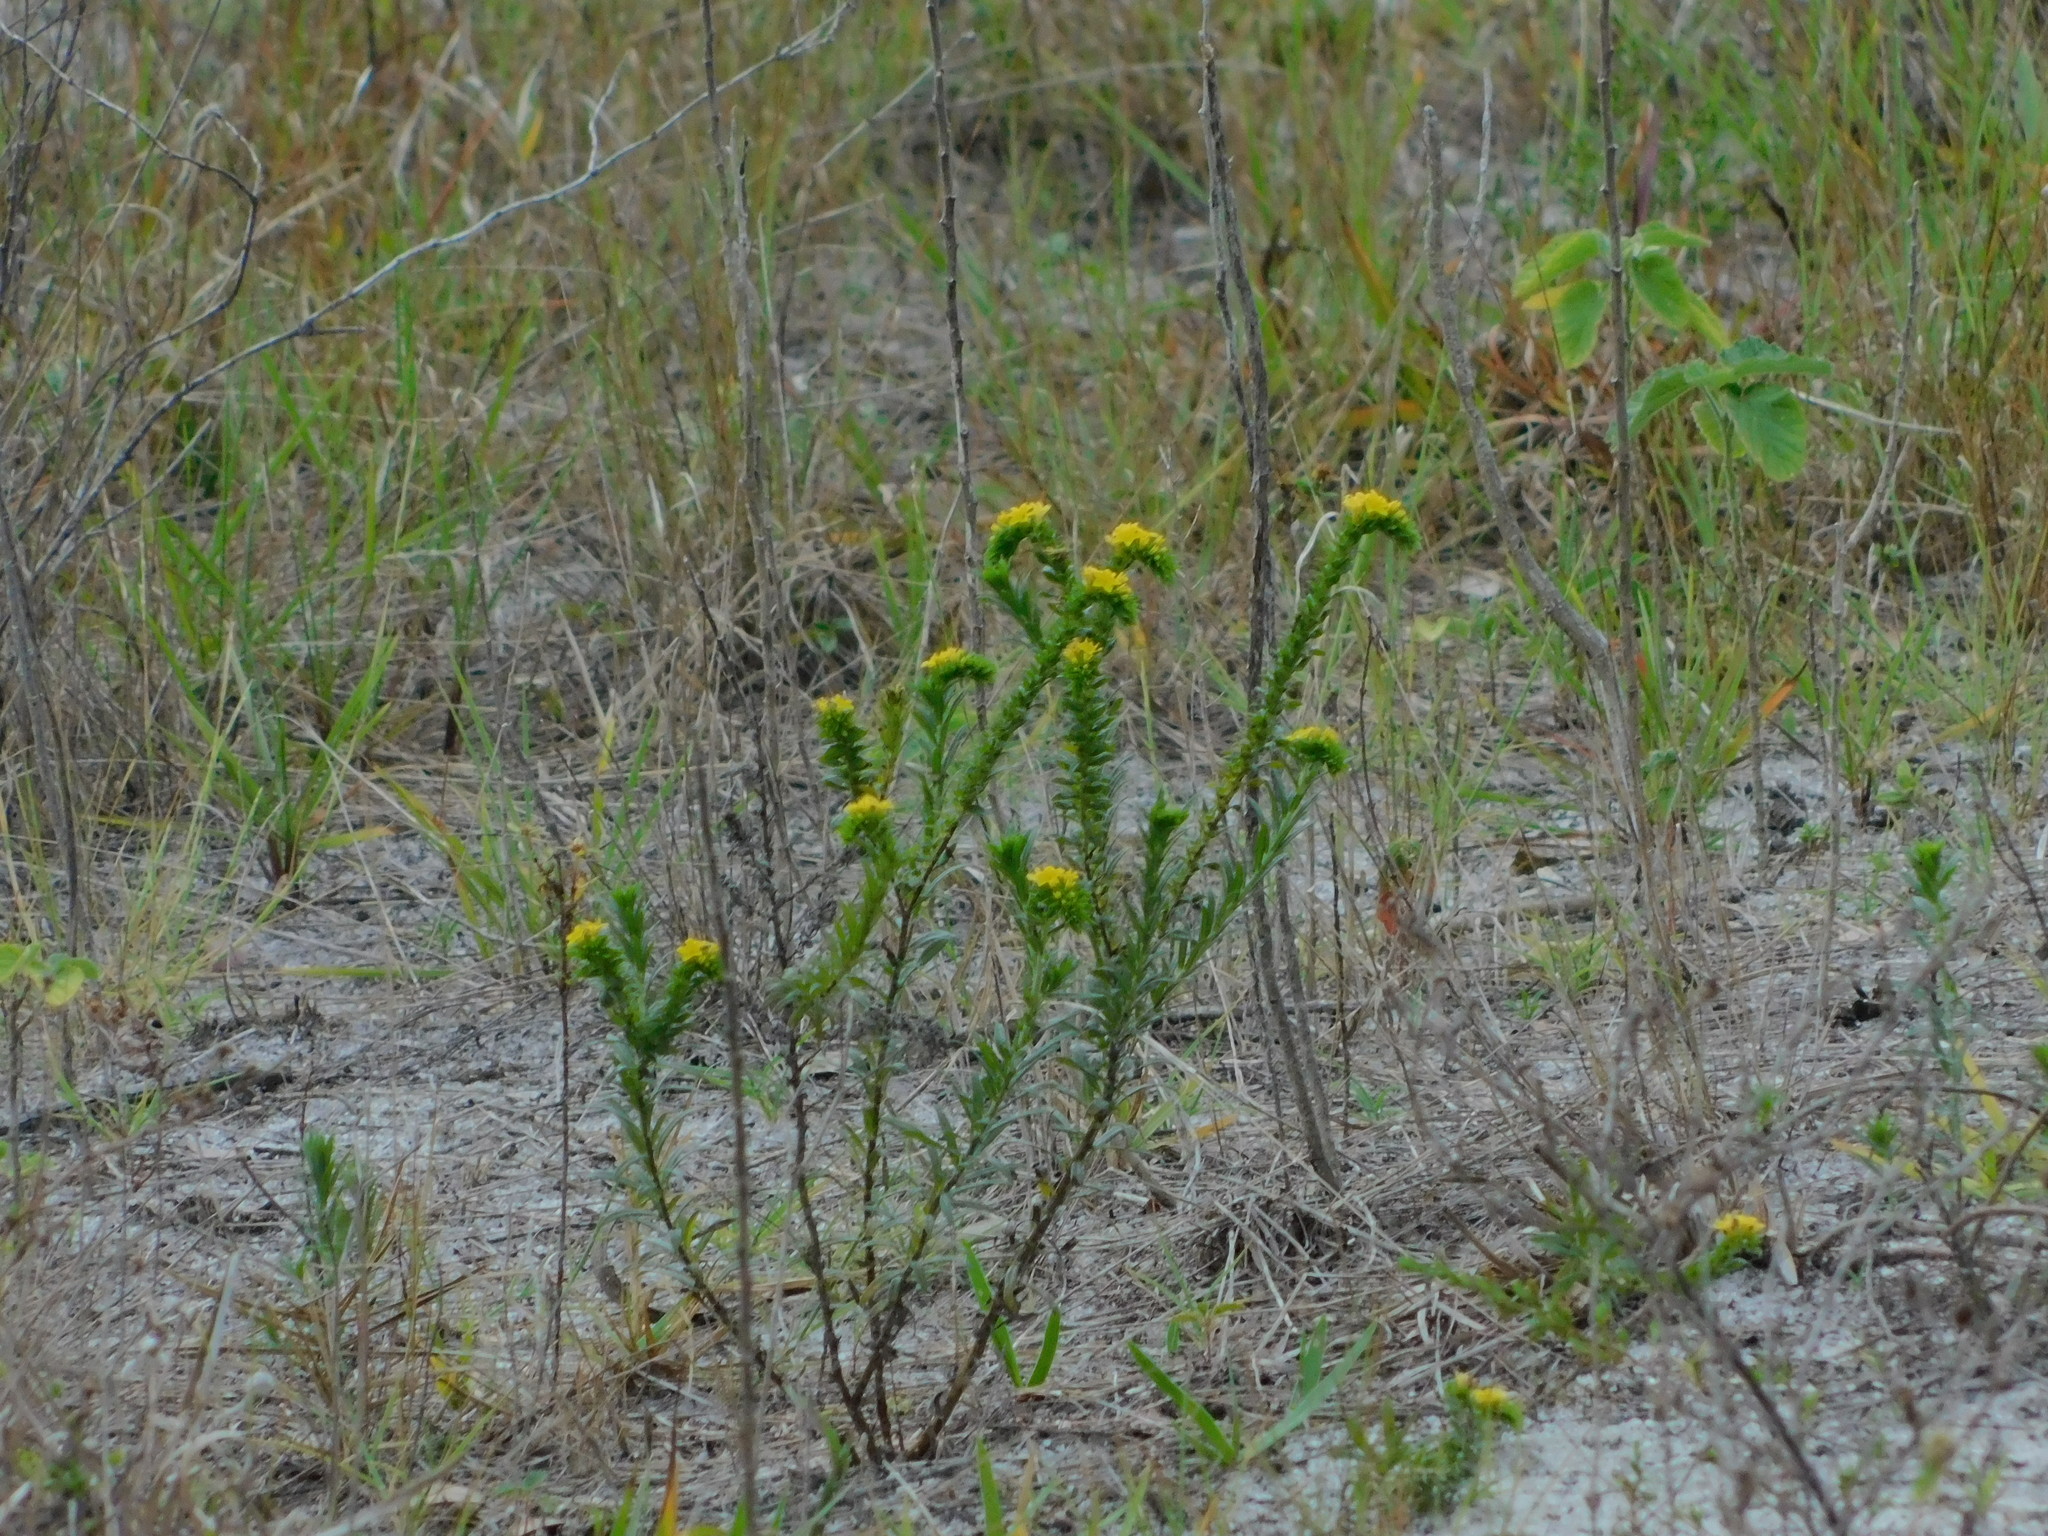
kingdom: Plantae
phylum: Tracheophyta
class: Magnoliopsida
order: Boraginales
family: Heliotropiaceae
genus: Euploca
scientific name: Euploca polyphylla
